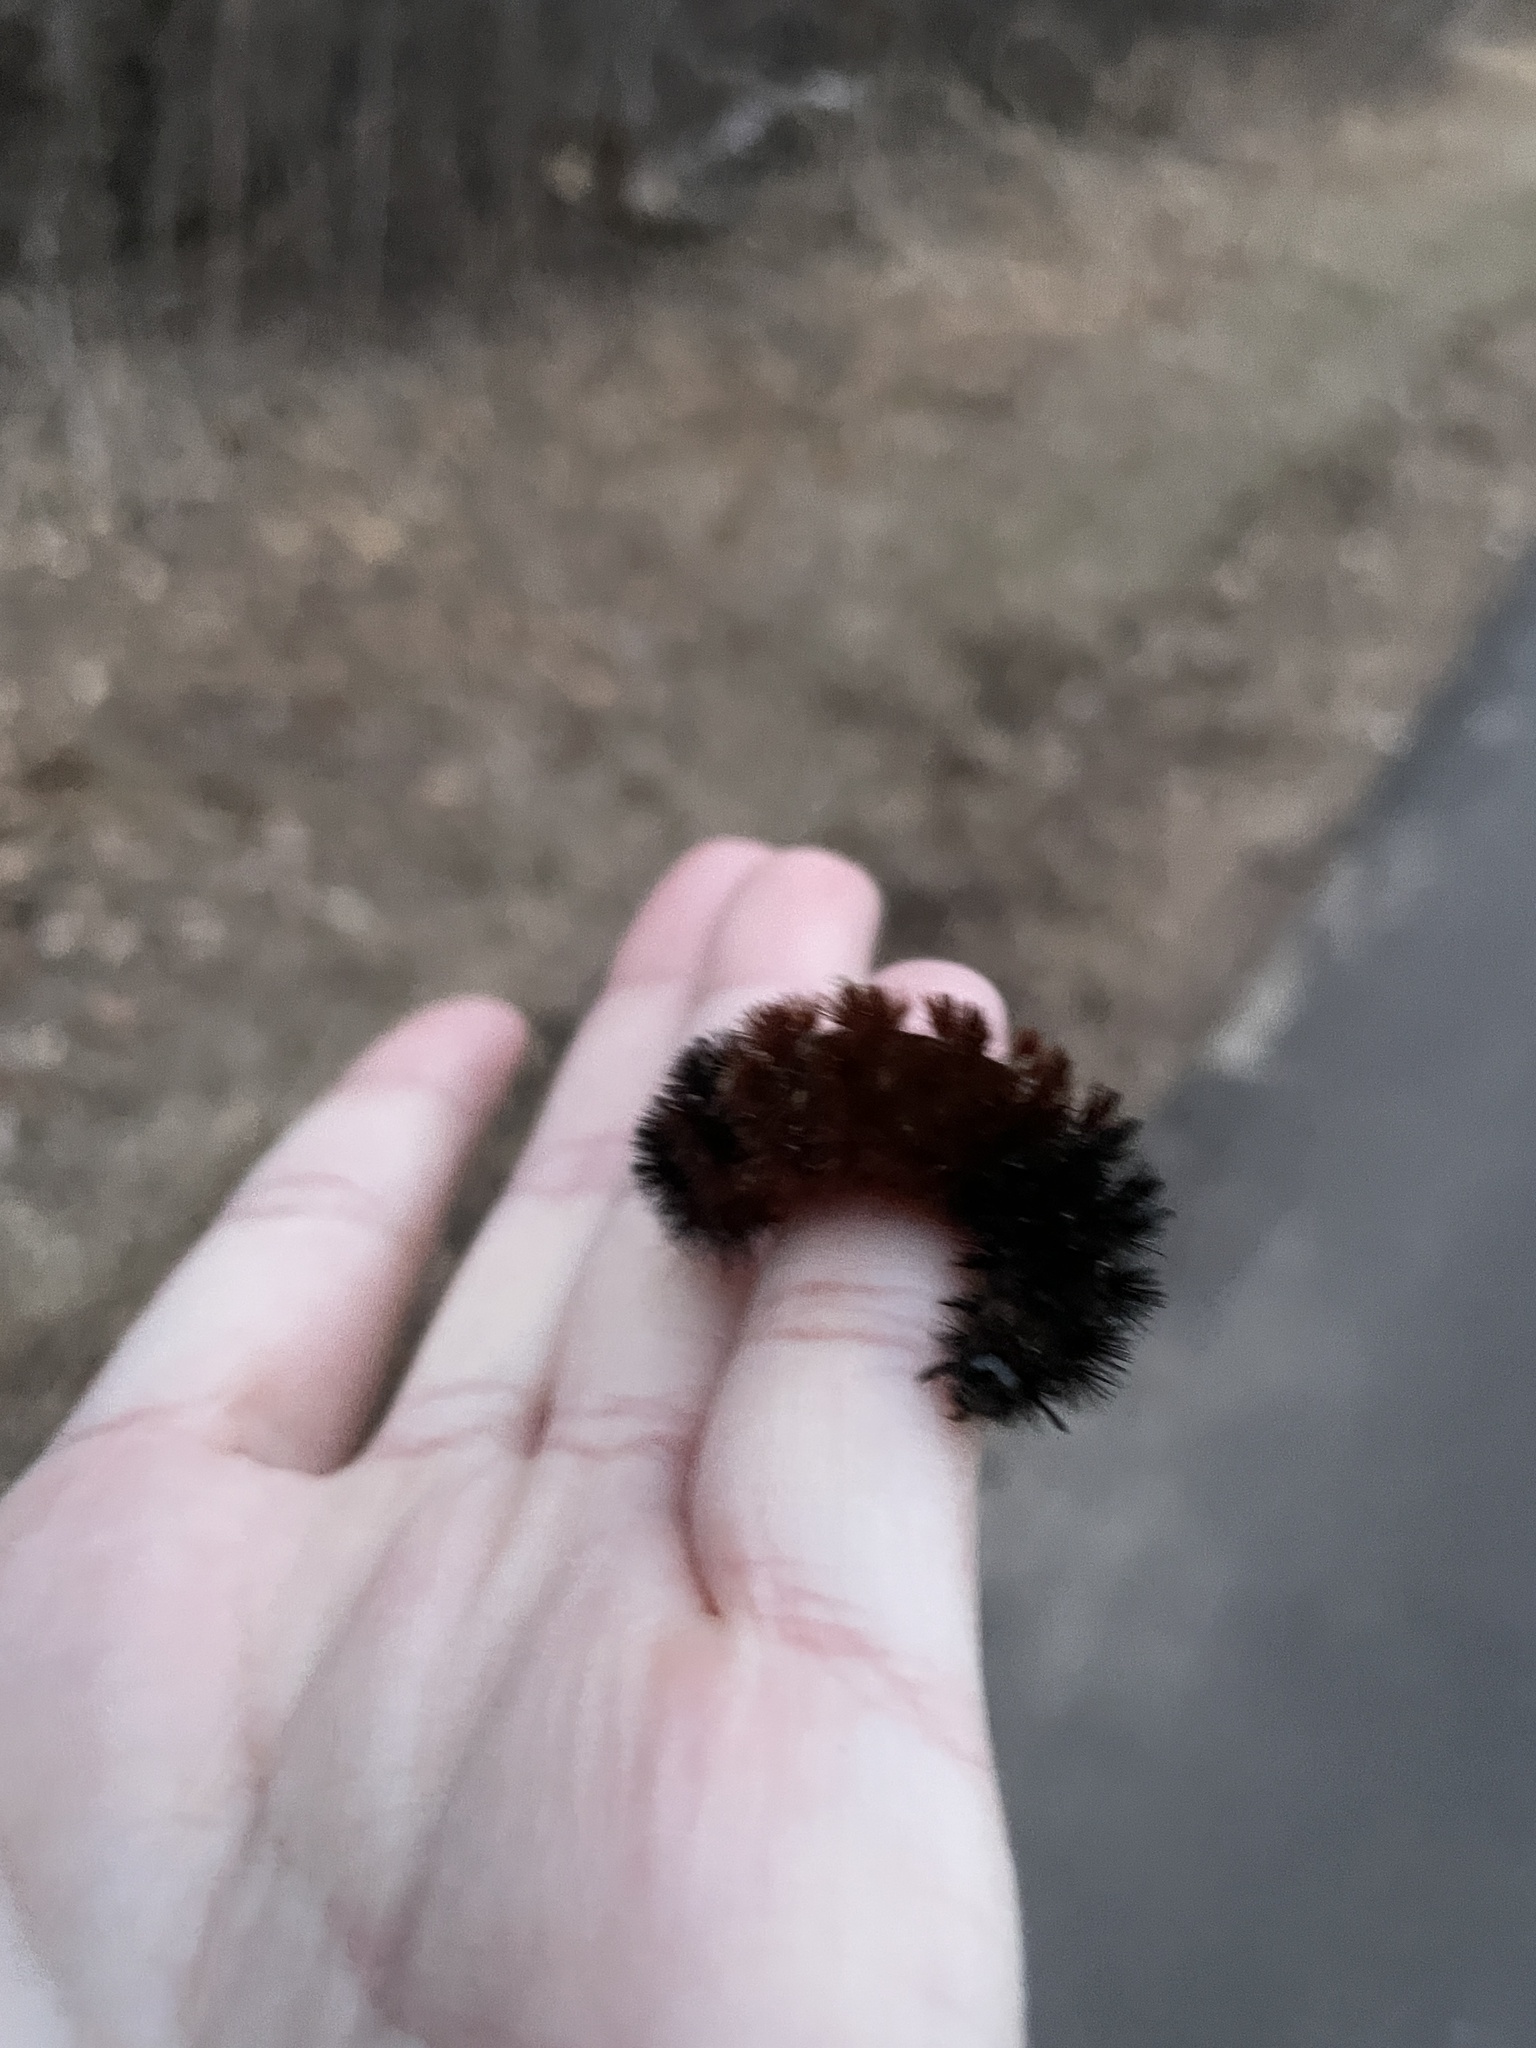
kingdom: Animalia
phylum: Arthropoda
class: Insecta
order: Lepidoptera
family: Erebidae
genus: Pyrrharctia
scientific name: Pyrrharctia isabella
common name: Isabella tiger moth
